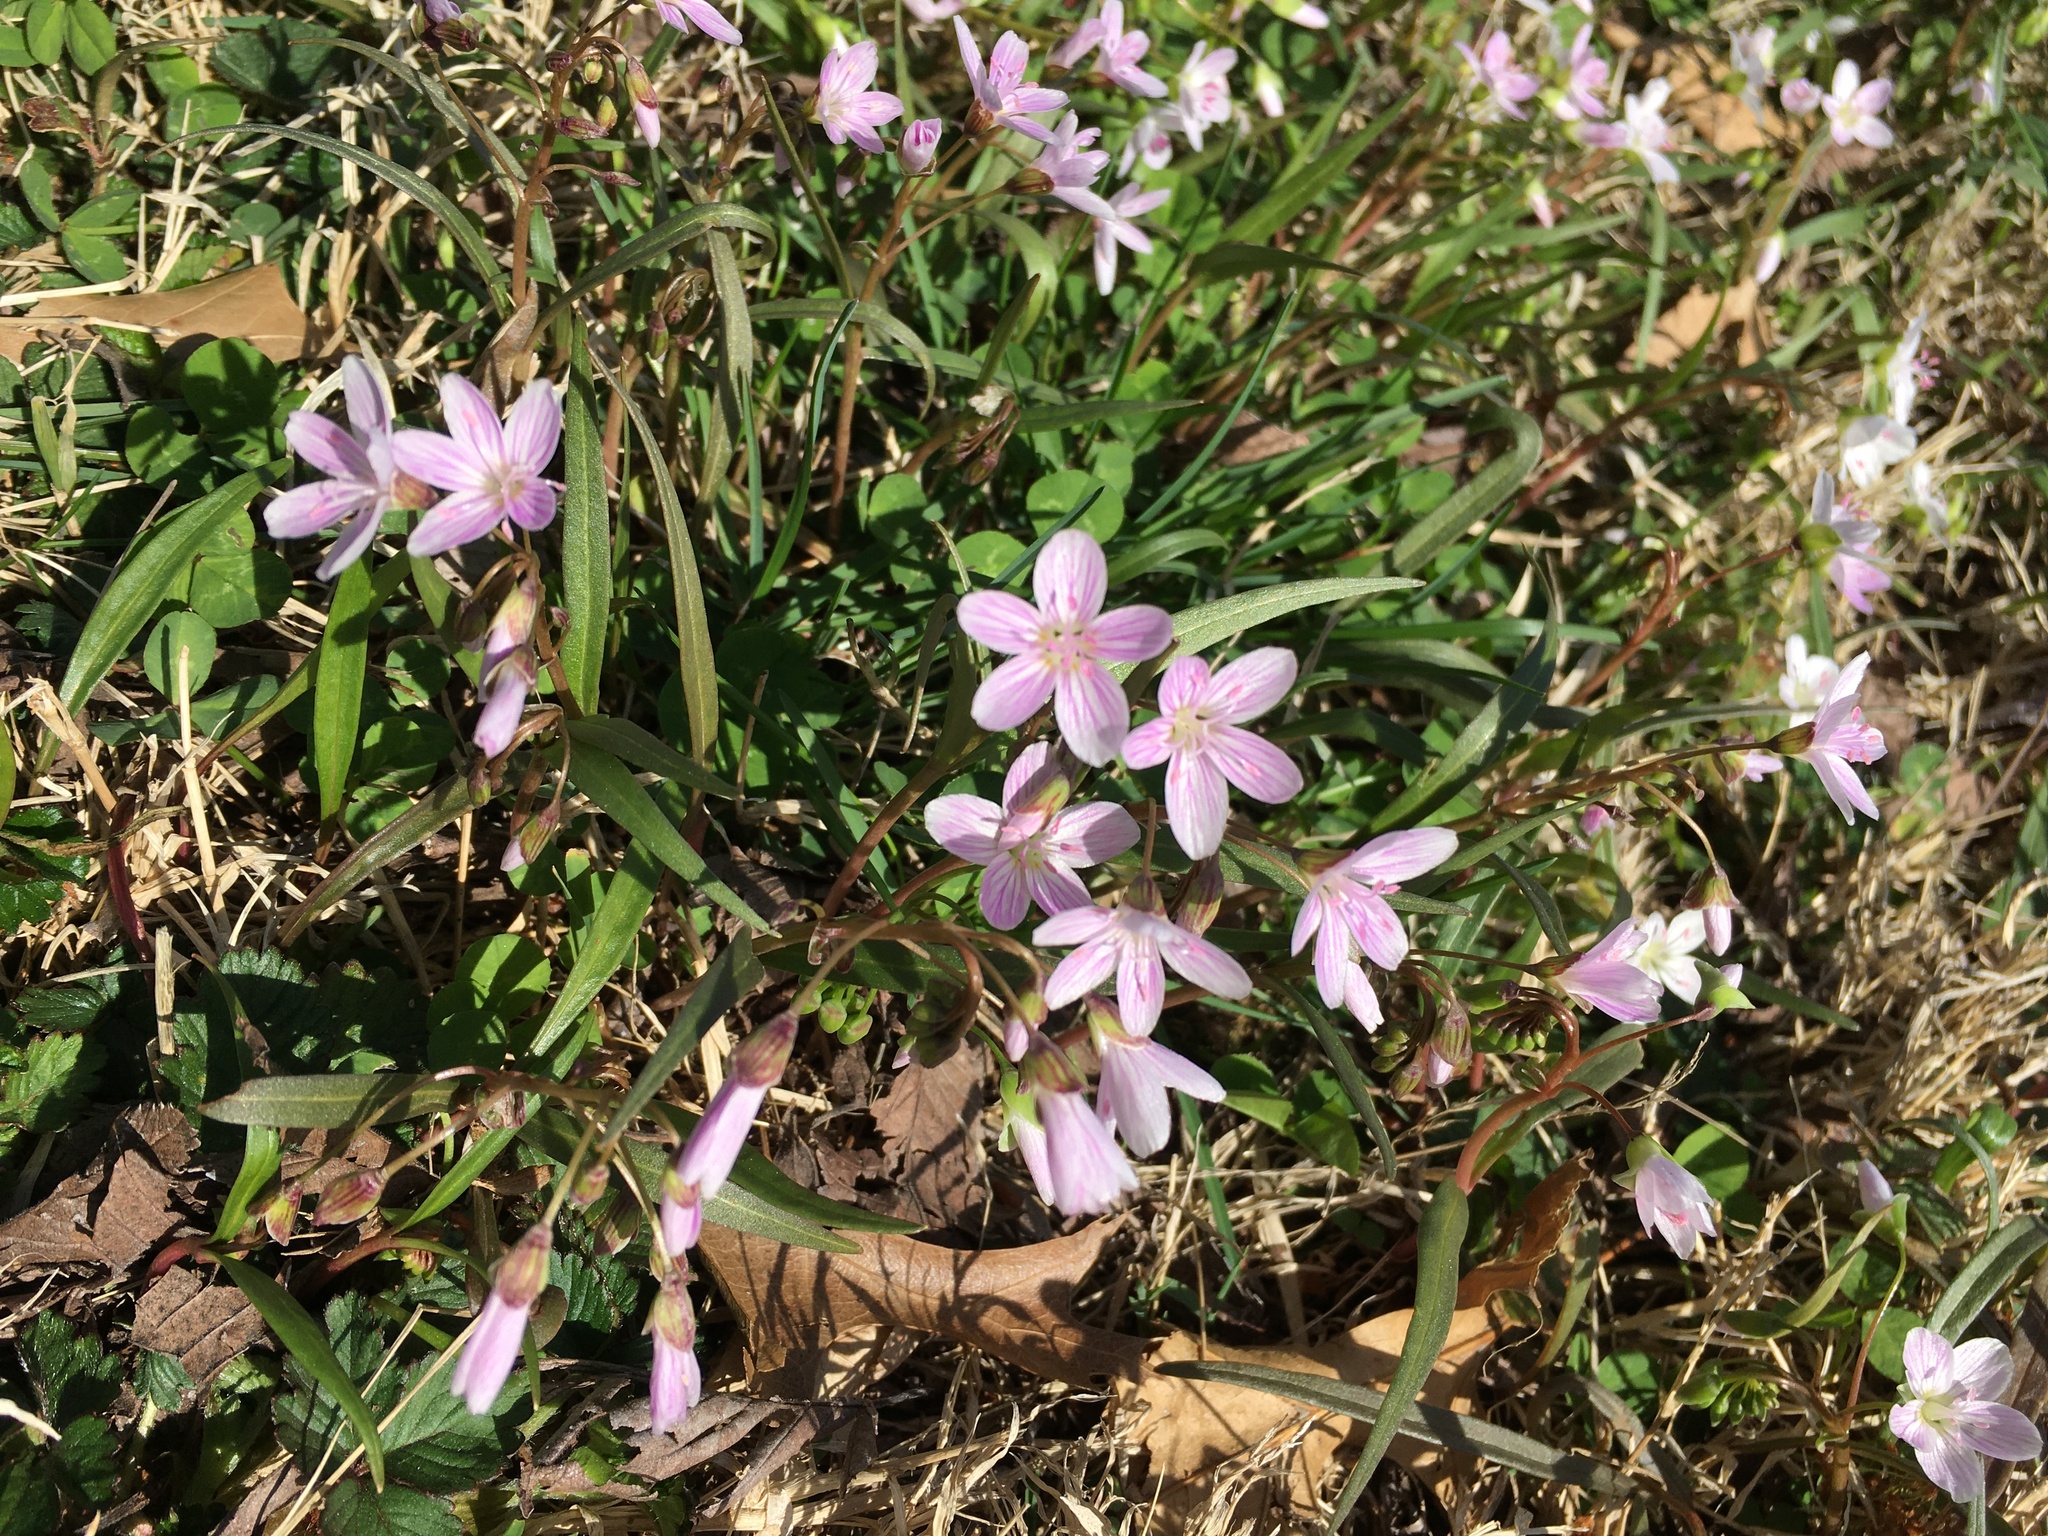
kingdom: Plantae
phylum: Tracheophyta
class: Magnoliopsida
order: Caryophyllales
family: Montiaceae
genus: Claytonia
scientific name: Claytonia virginica
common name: Virginia springbeauty
